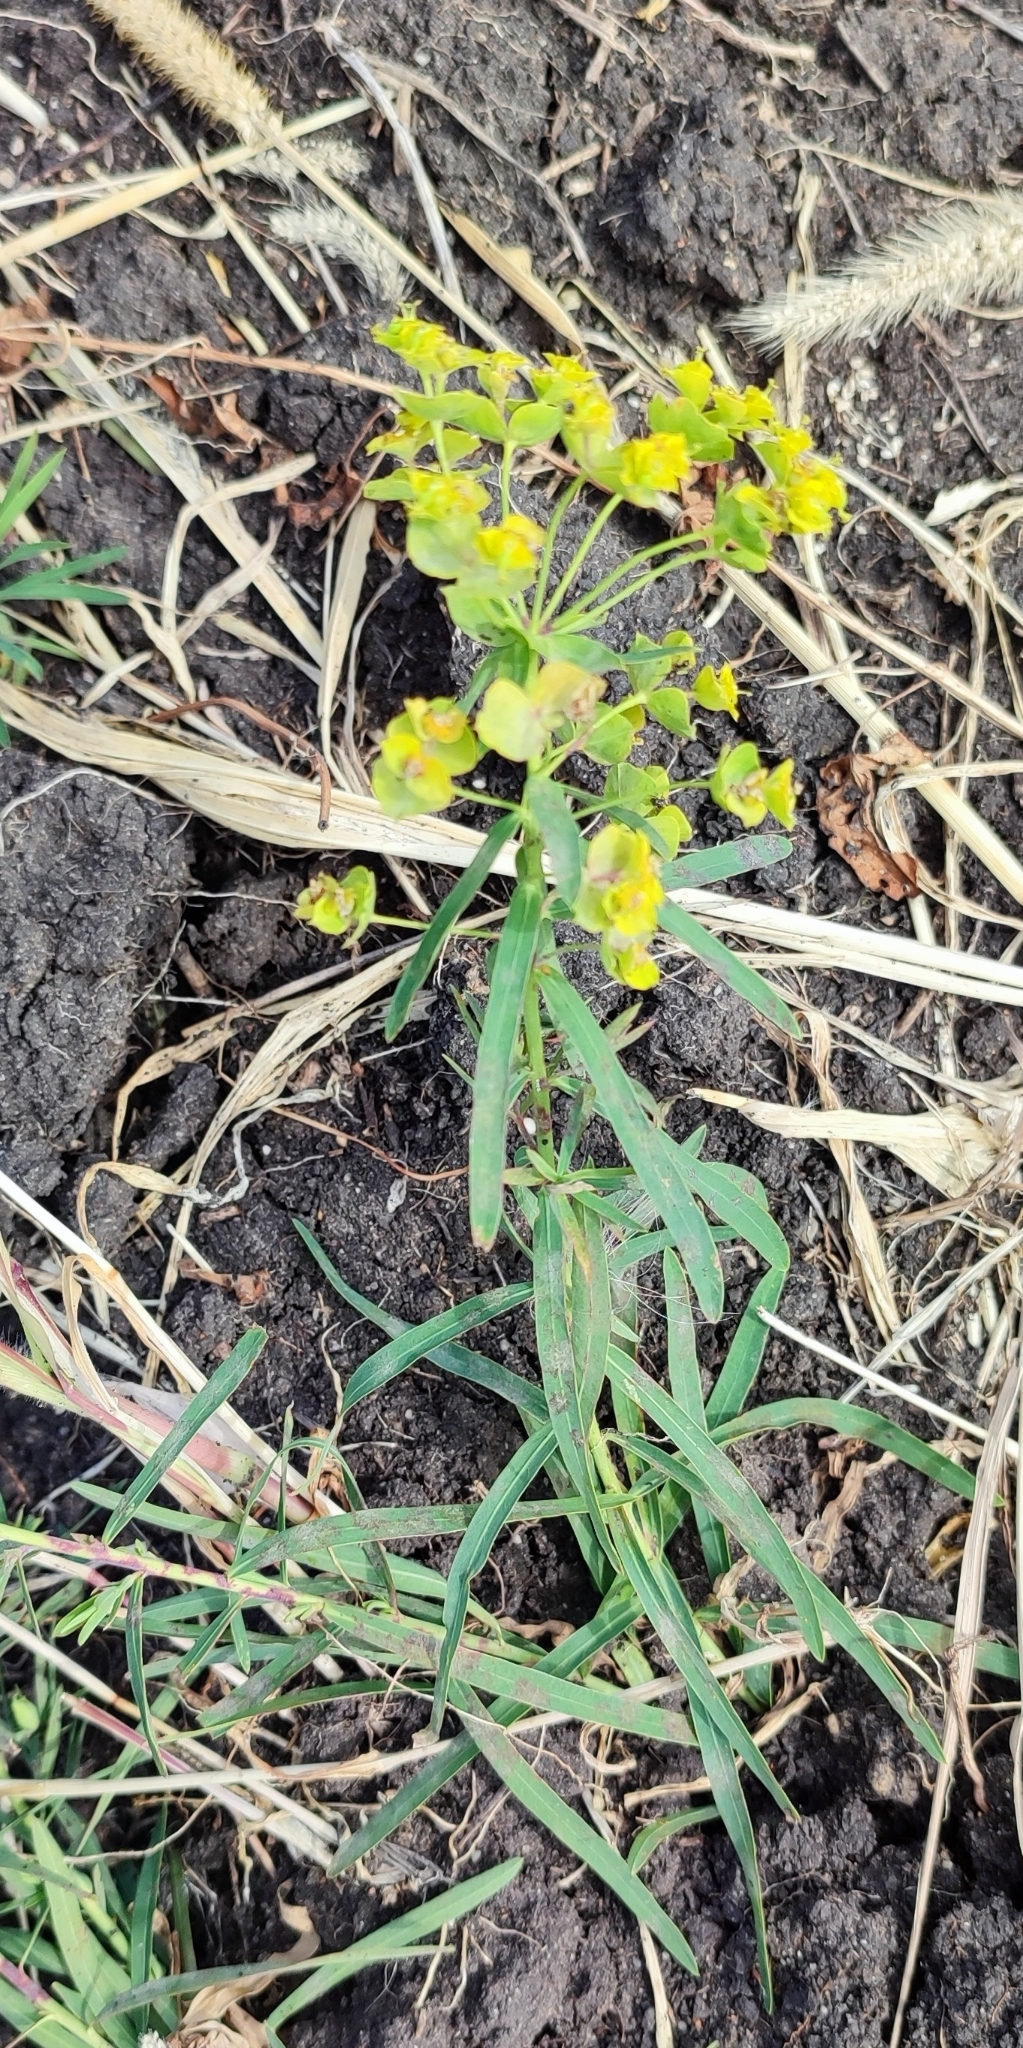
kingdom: Plantae
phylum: Tracheophyta
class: Magnoliopsida
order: Malpighiales
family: Euphorbiaceae
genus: Euphorbia
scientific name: Euphorbia virgata
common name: Leafy spurge
